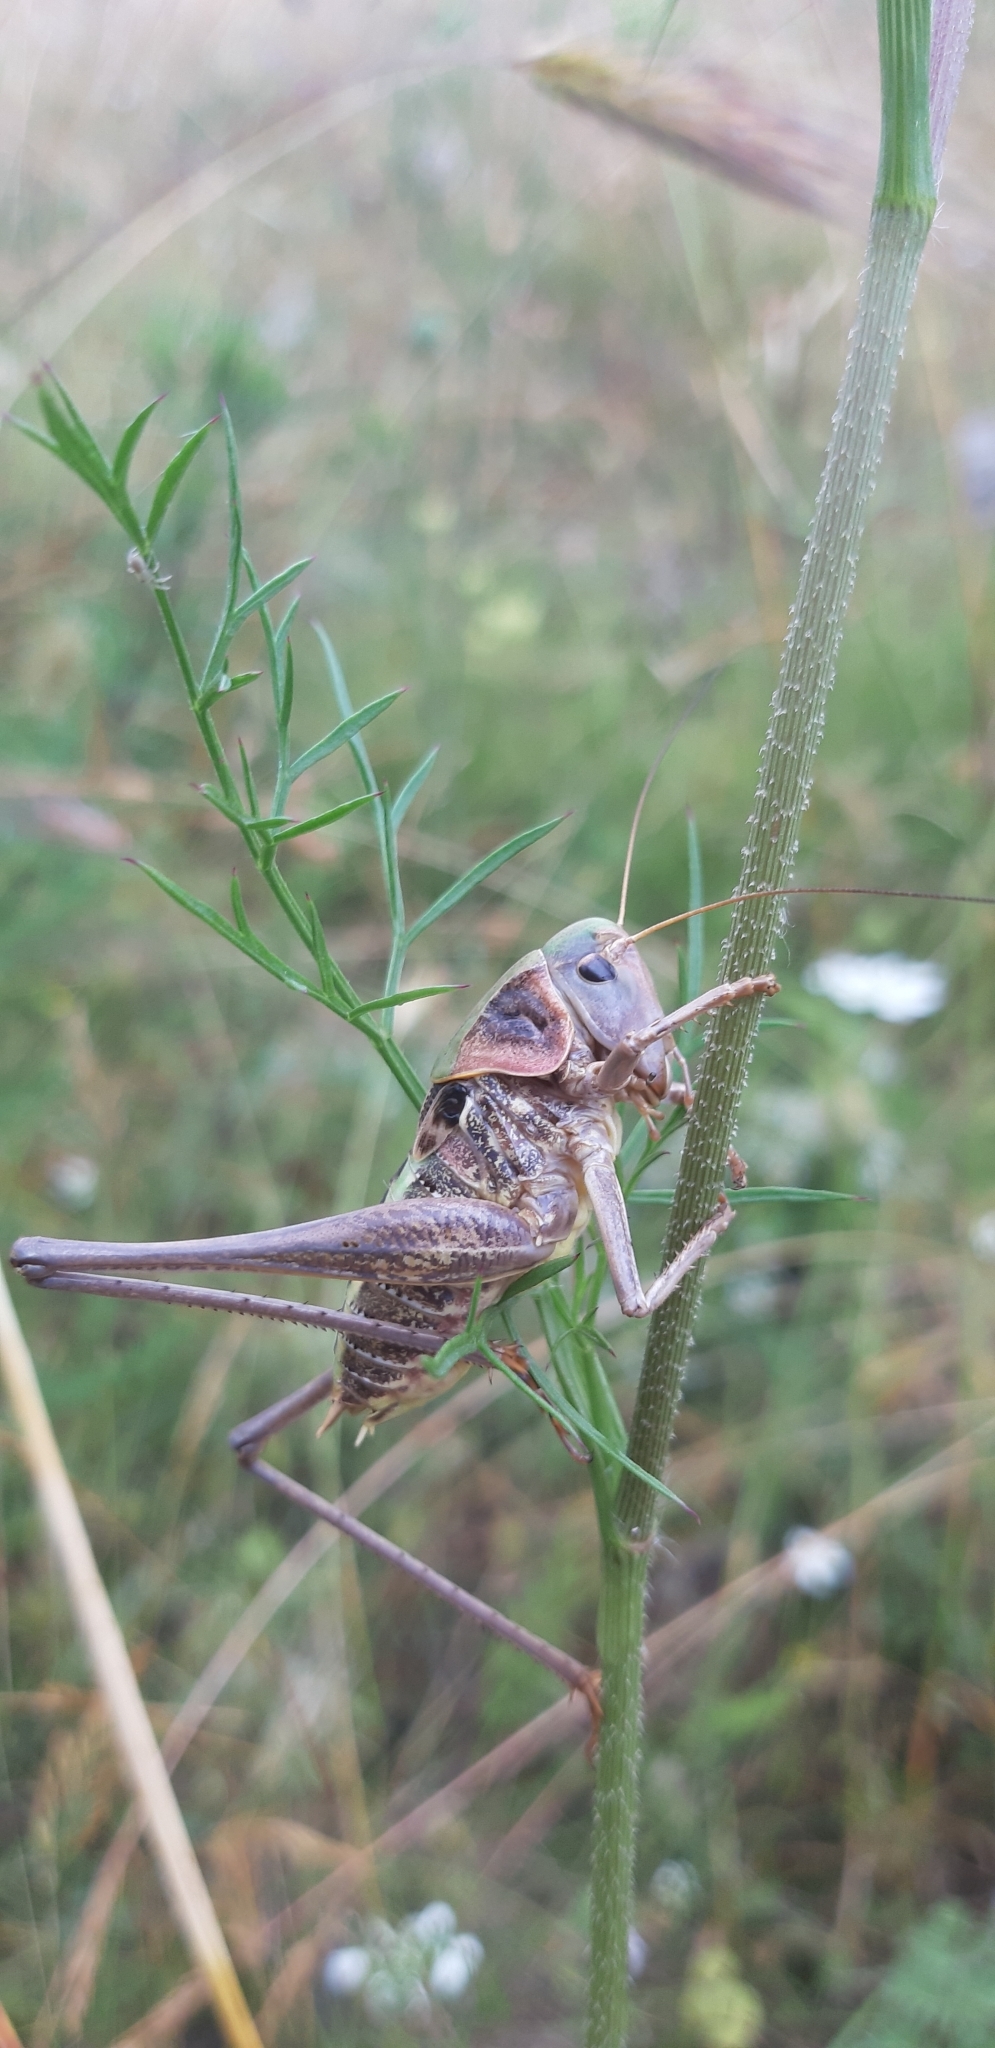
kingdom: Animalia
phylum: Arthropoda
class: Insecta
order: Orthoptera
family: Tettigoniidae
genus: Decticus
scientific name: Decticus loudoni
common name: Apulian wart-biter
